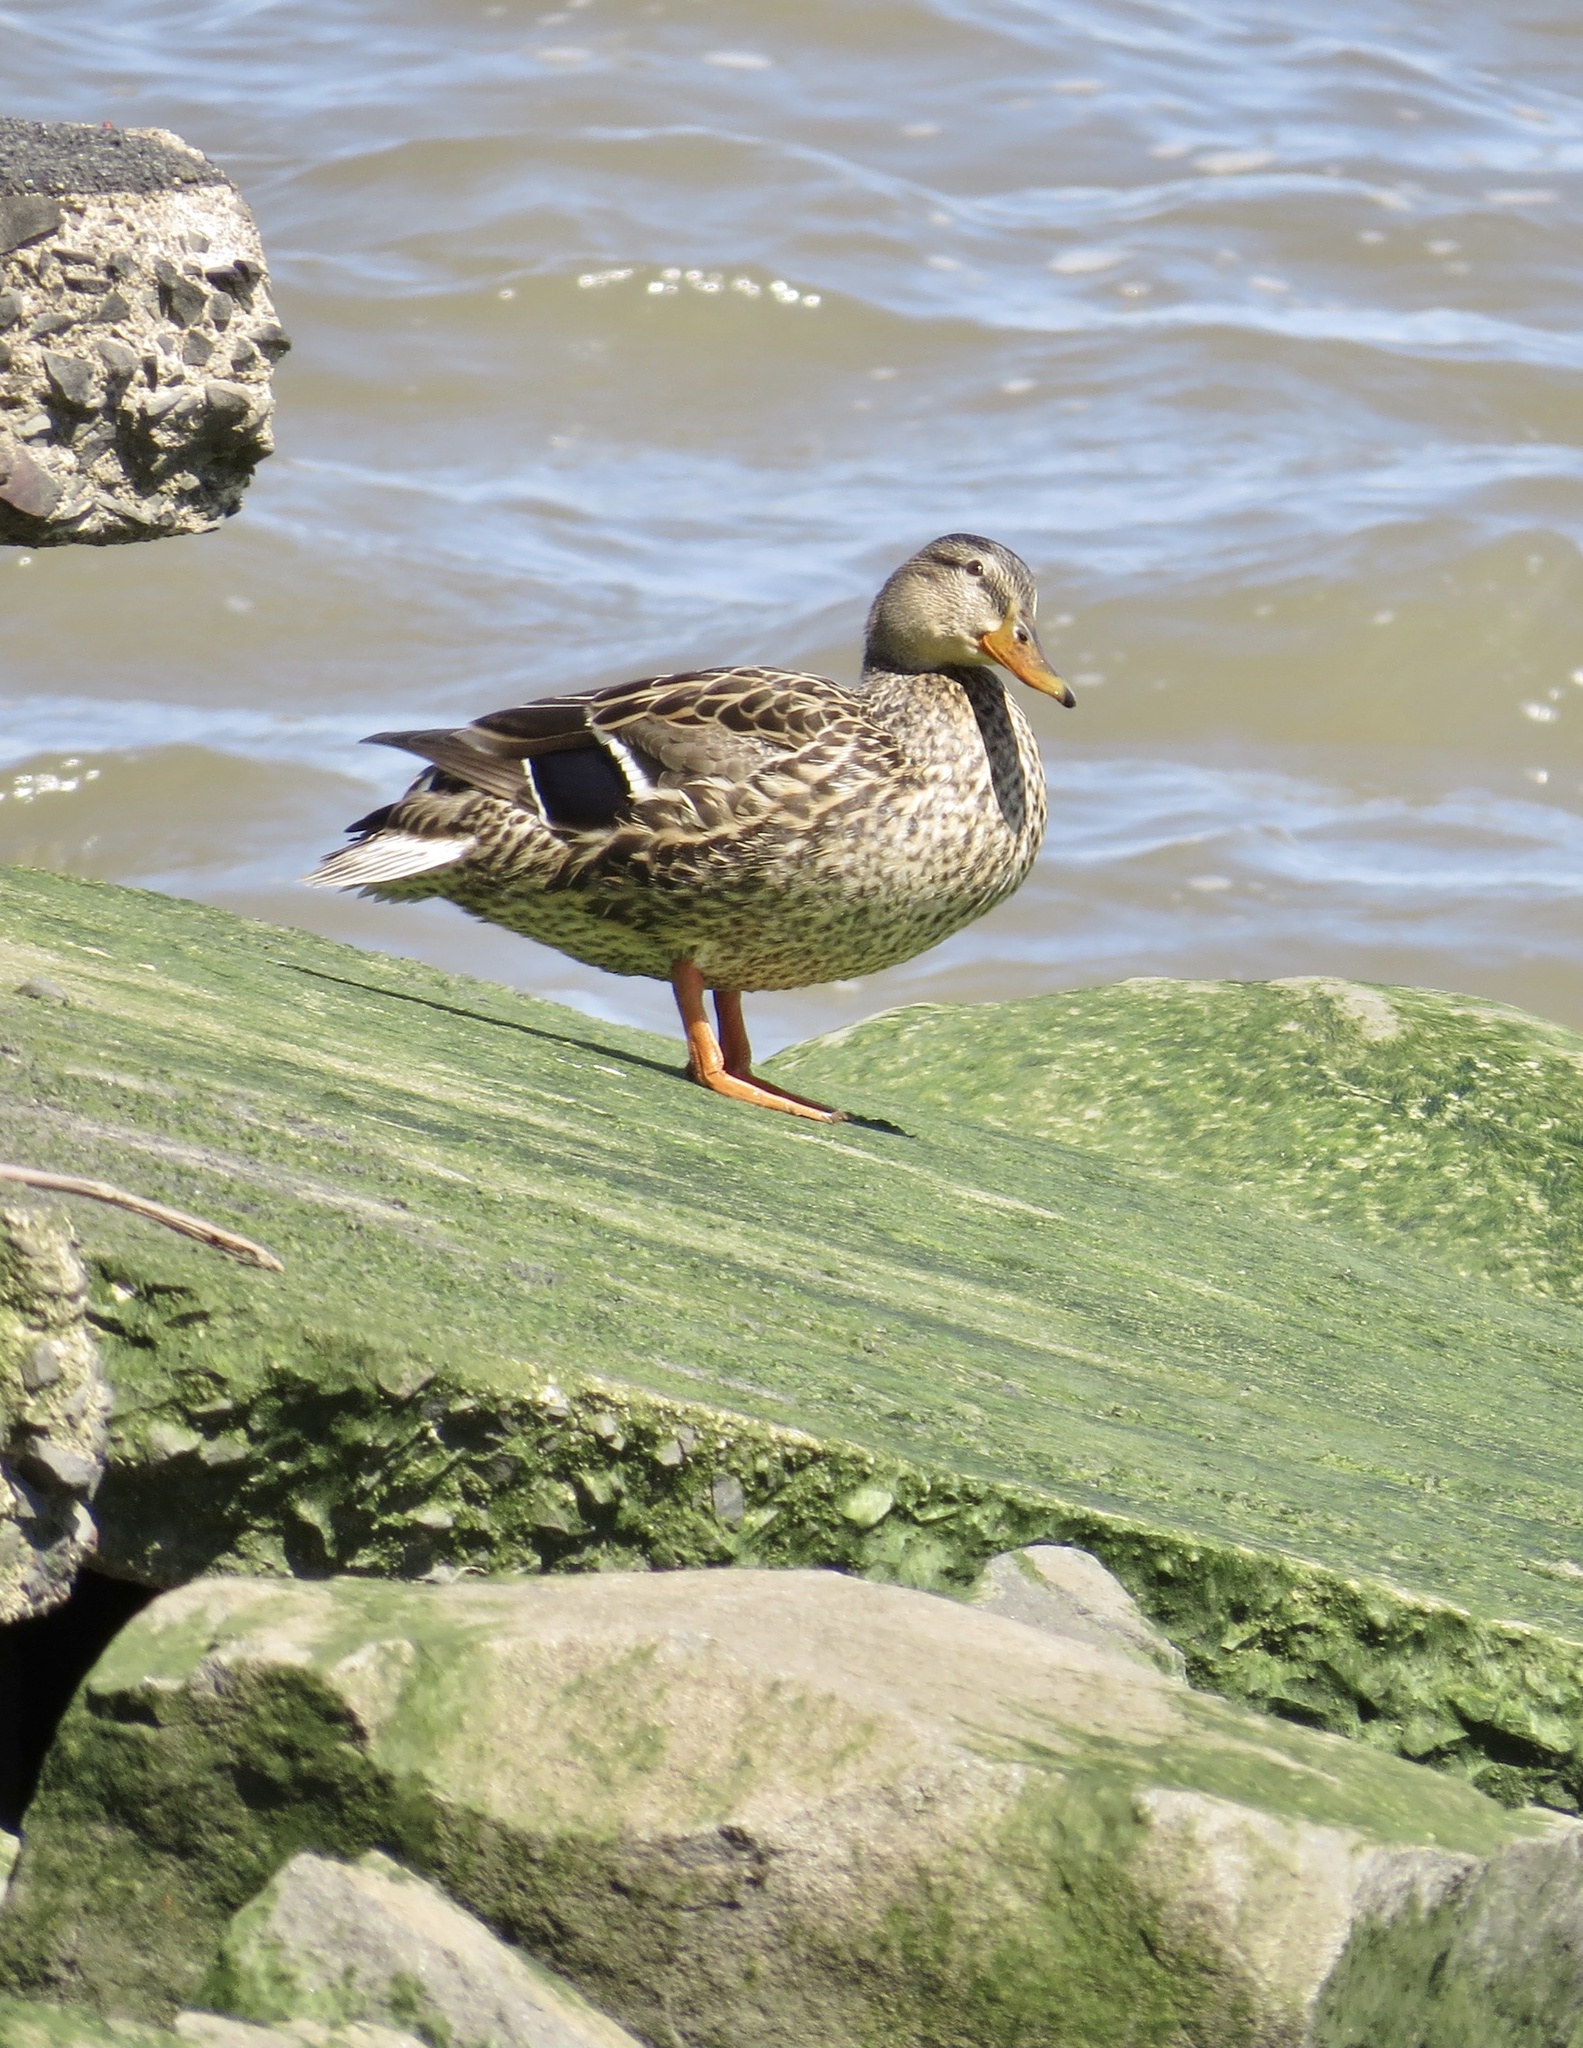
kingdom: Animalia
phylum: Chordata
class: Aves
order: Anseriformes
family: Anatidae
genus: Anas
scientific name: Anas platyrhynchos
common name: Mallard
